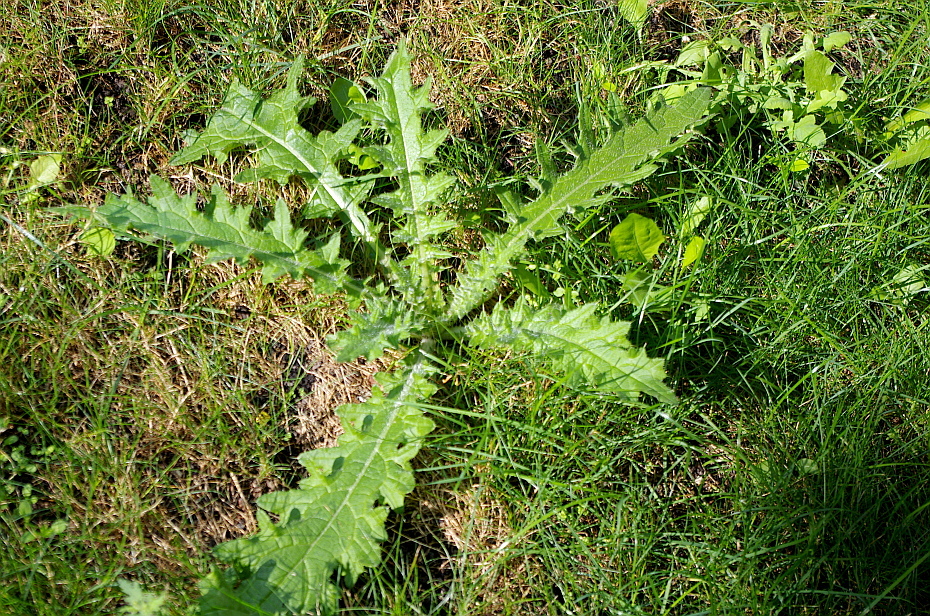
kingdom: Plantae
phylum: Tracheophyta
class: Magnoliopsida
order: Asterales
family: Asteraceae
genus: Cirsium
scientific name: Cirsium vulgare
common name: Bull thistle
